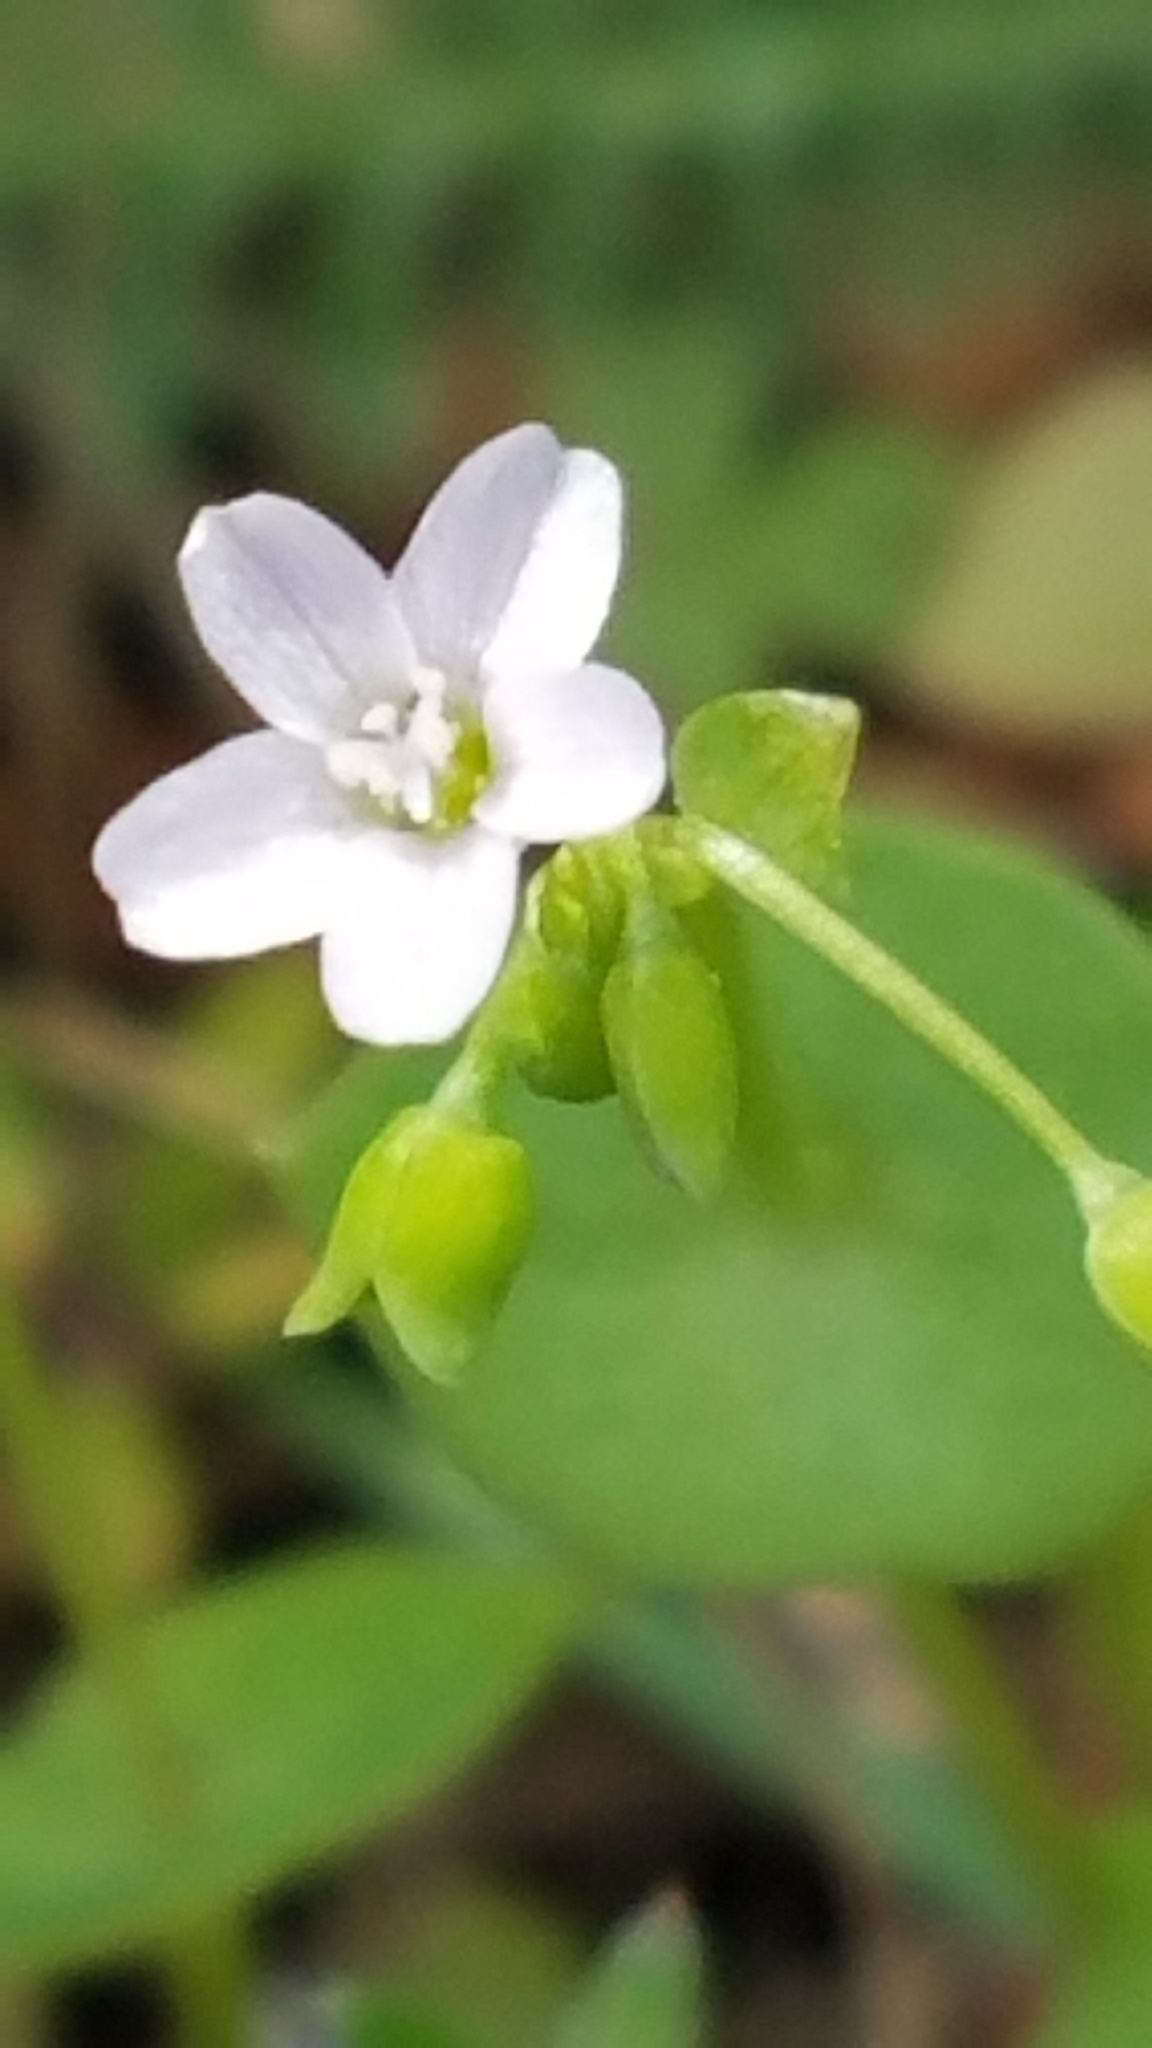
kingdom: Plantae
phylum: Tracheophyta
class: Magnoliopsida
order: Caryophyllales
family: Montiaceae
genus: Claytonia
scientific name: Claytonia perfoliata
